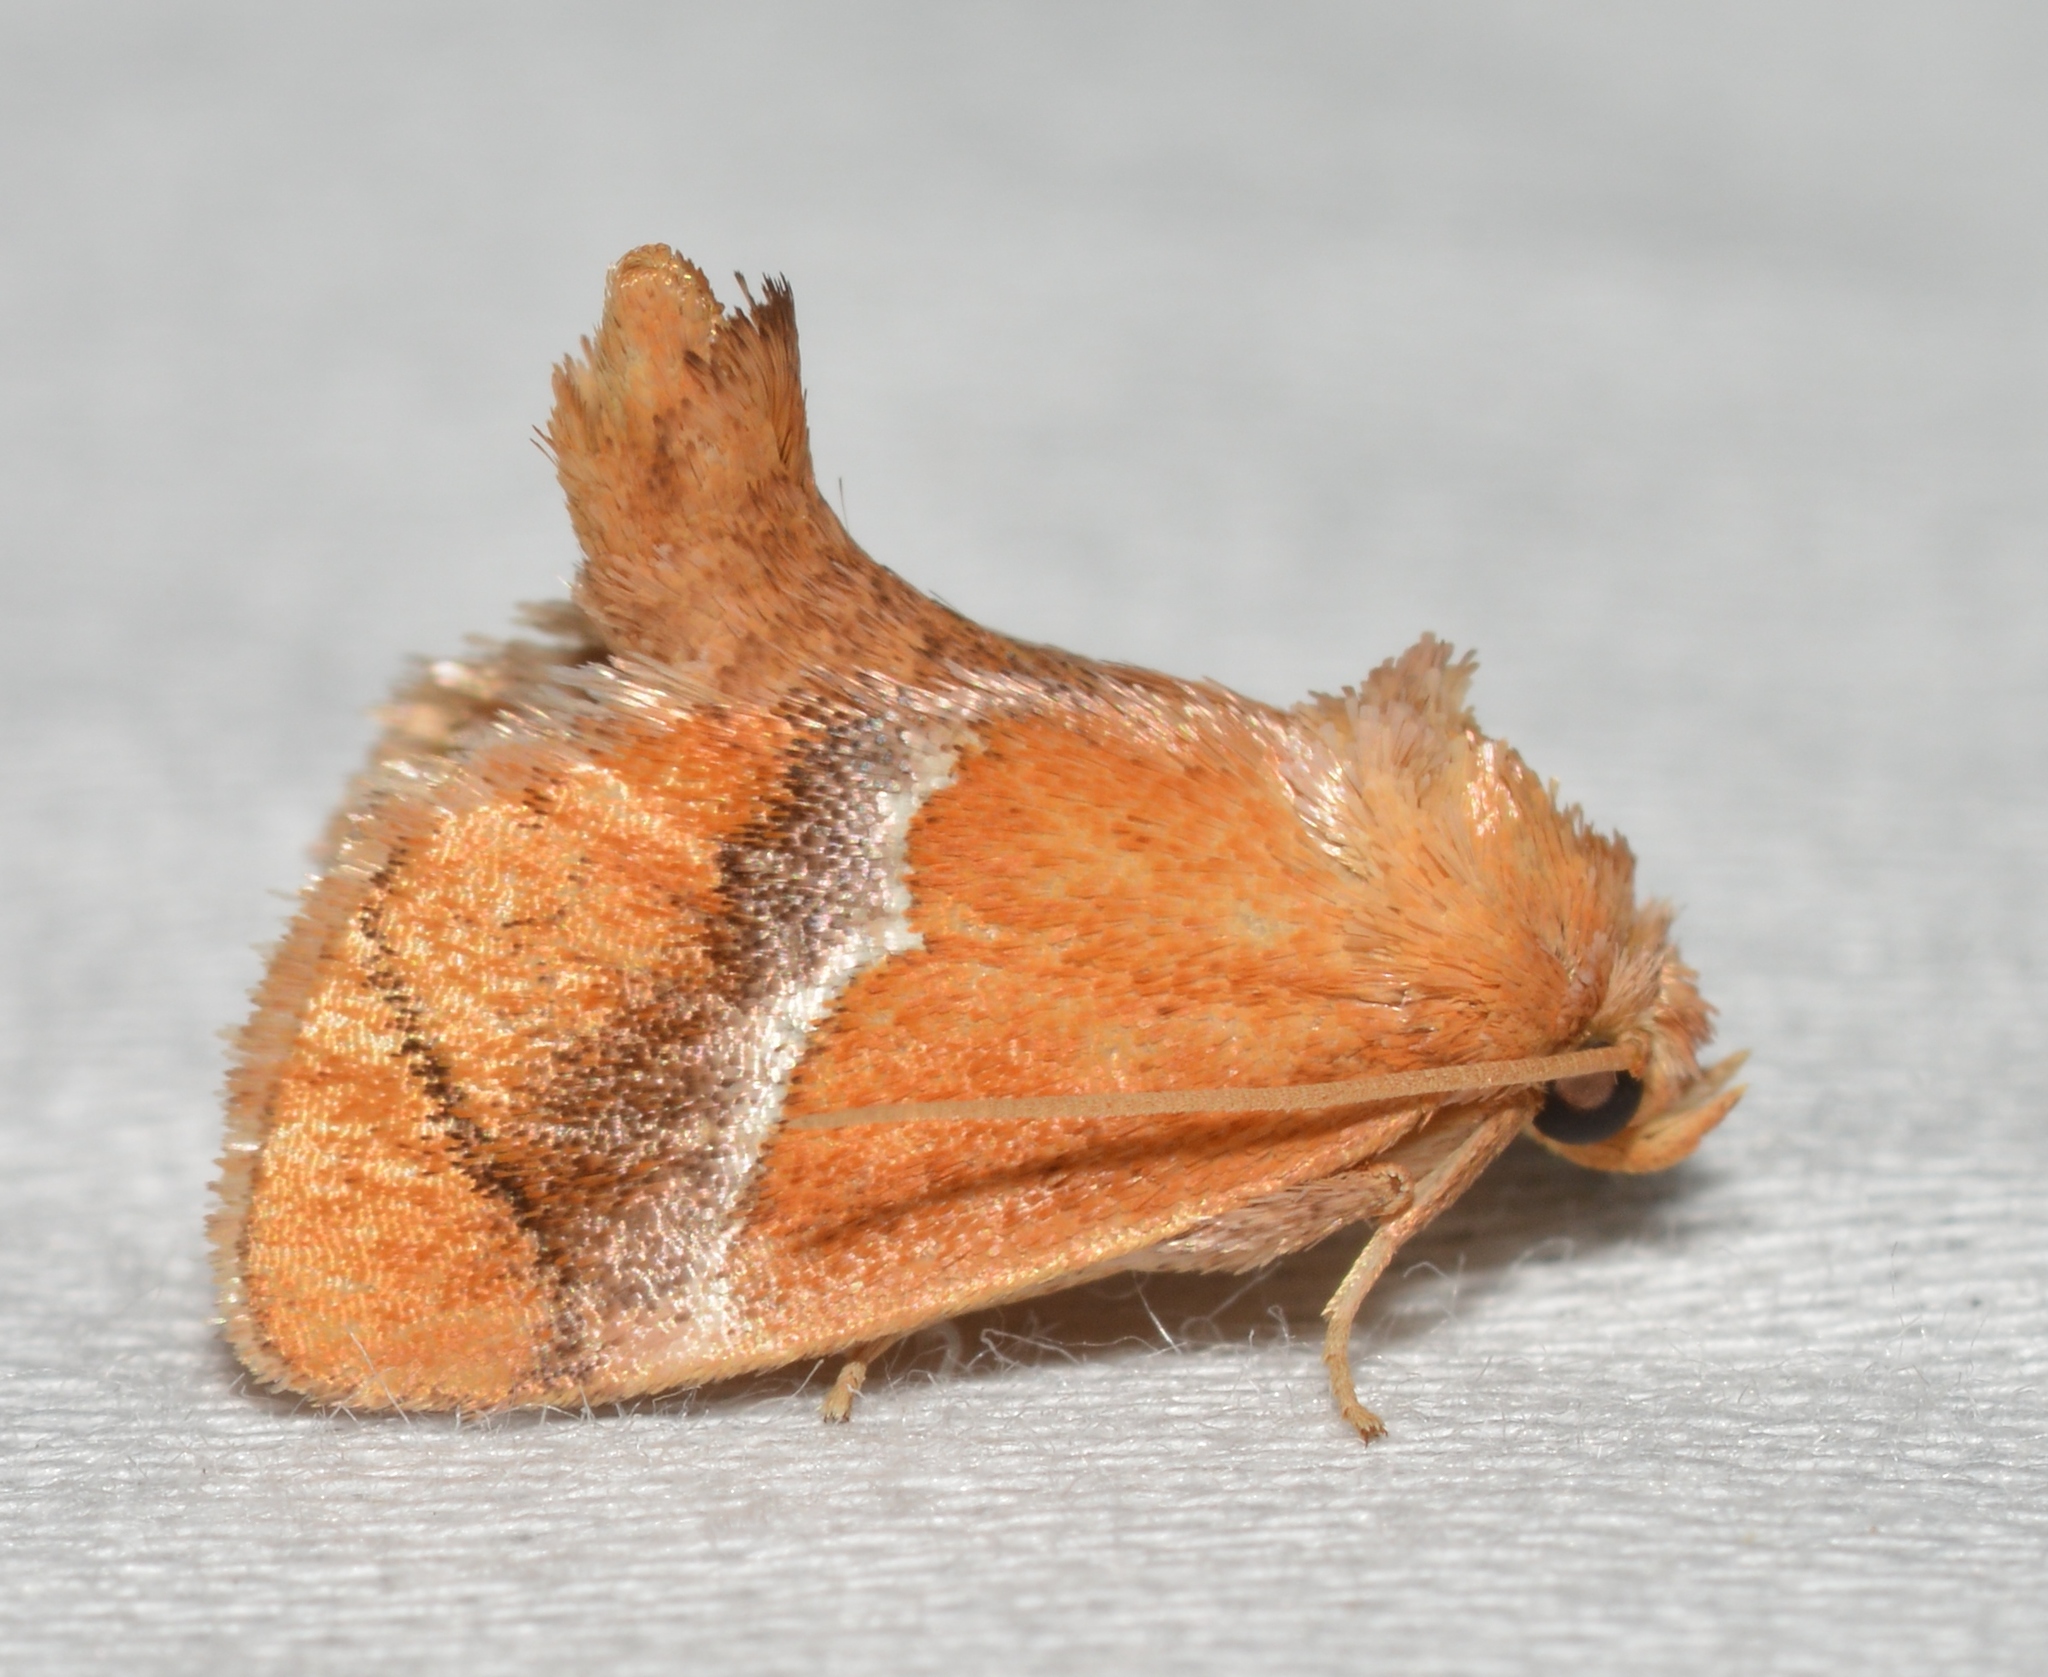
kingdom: Animalia
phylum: Arthropoda
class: Insecta
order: Lepidoptera
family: Limacodidae
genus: Lithacodes
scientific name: Lithacodes fasciola
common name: Yellow-shouldered slug moth
